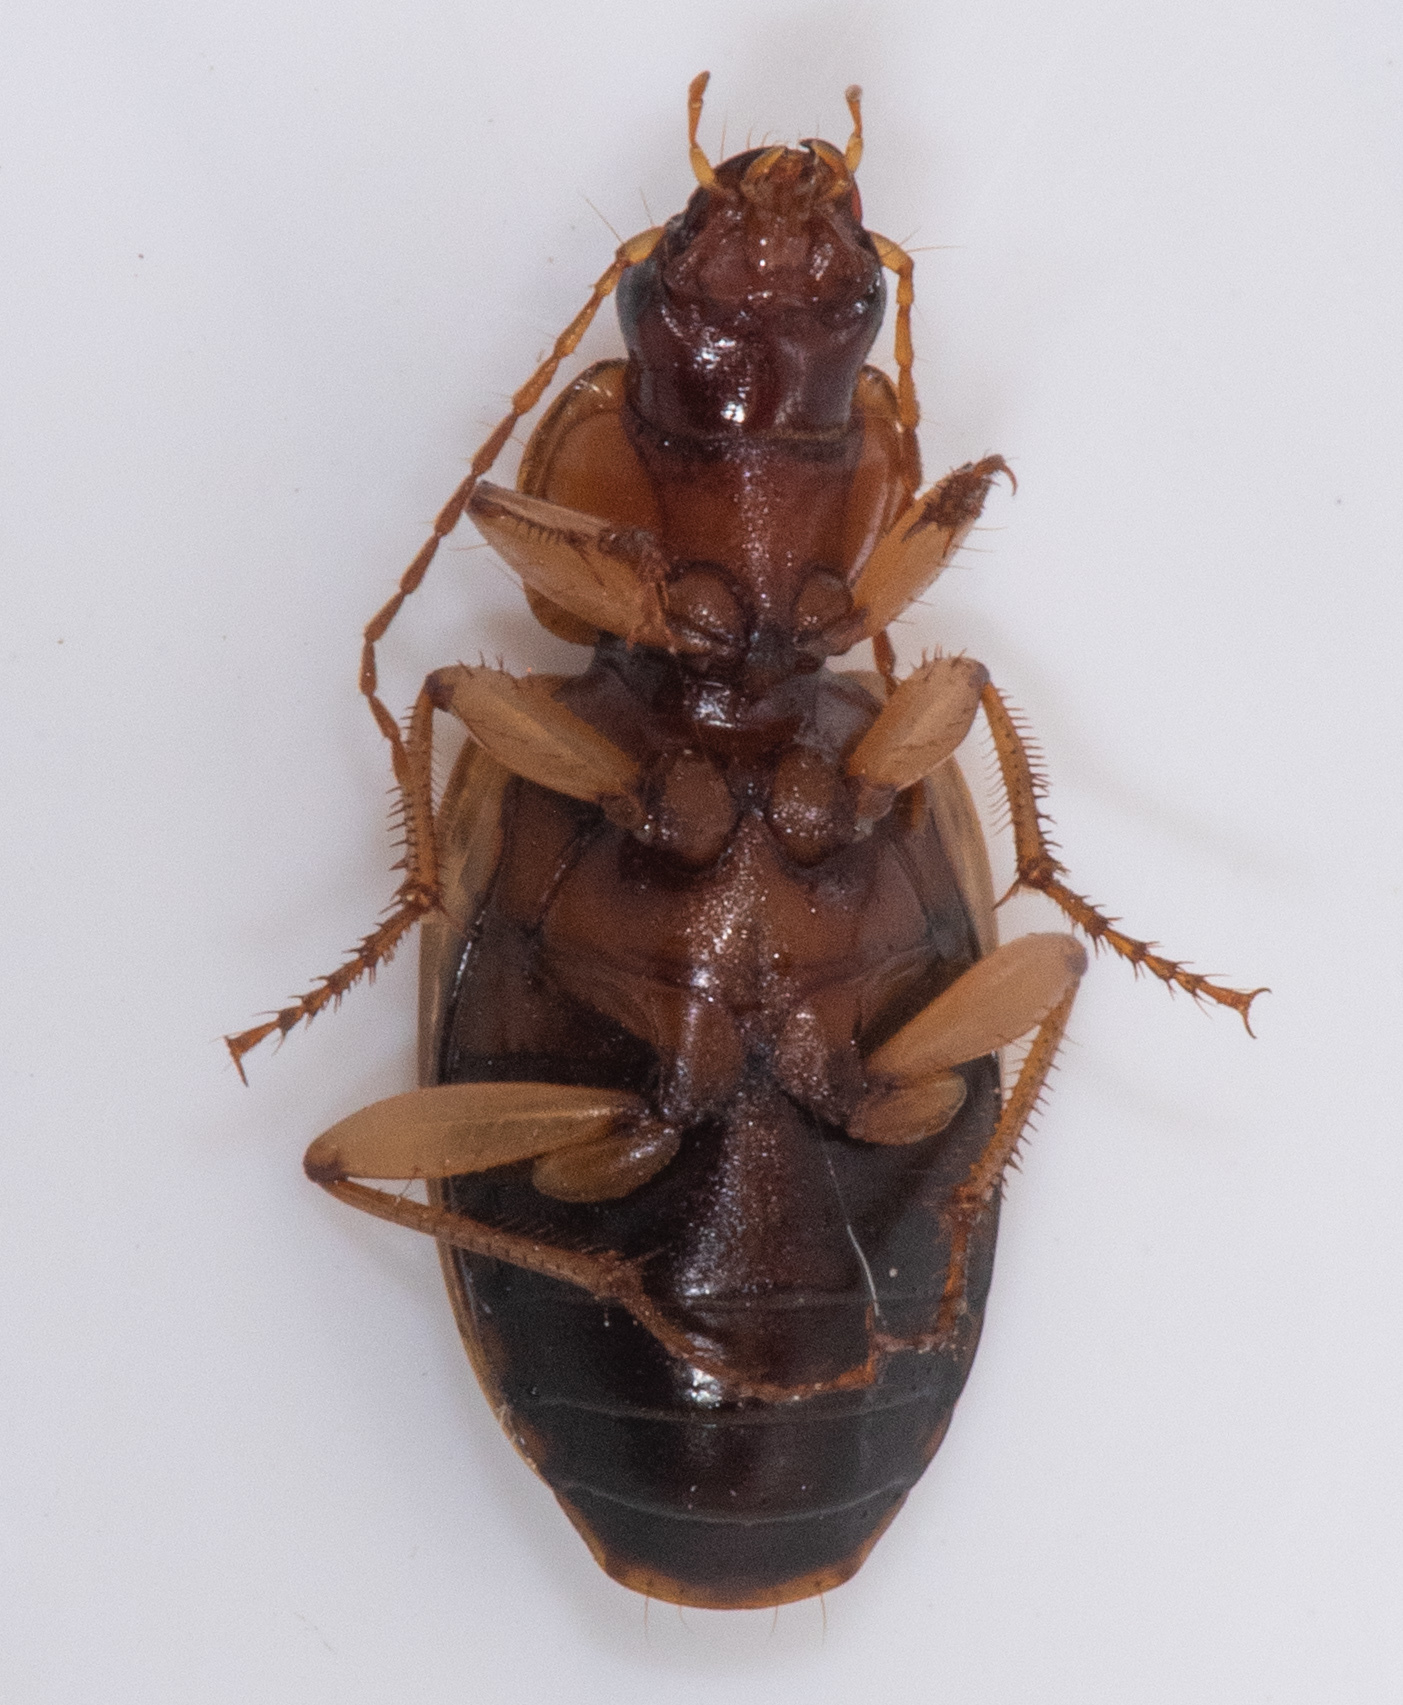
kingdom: Animalia
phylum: Arthropoda
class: Insecta
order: Coleoptera
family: Carabidae
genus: Tanystoma
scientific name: Tanystoma maculicolle
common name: Tule beetle
